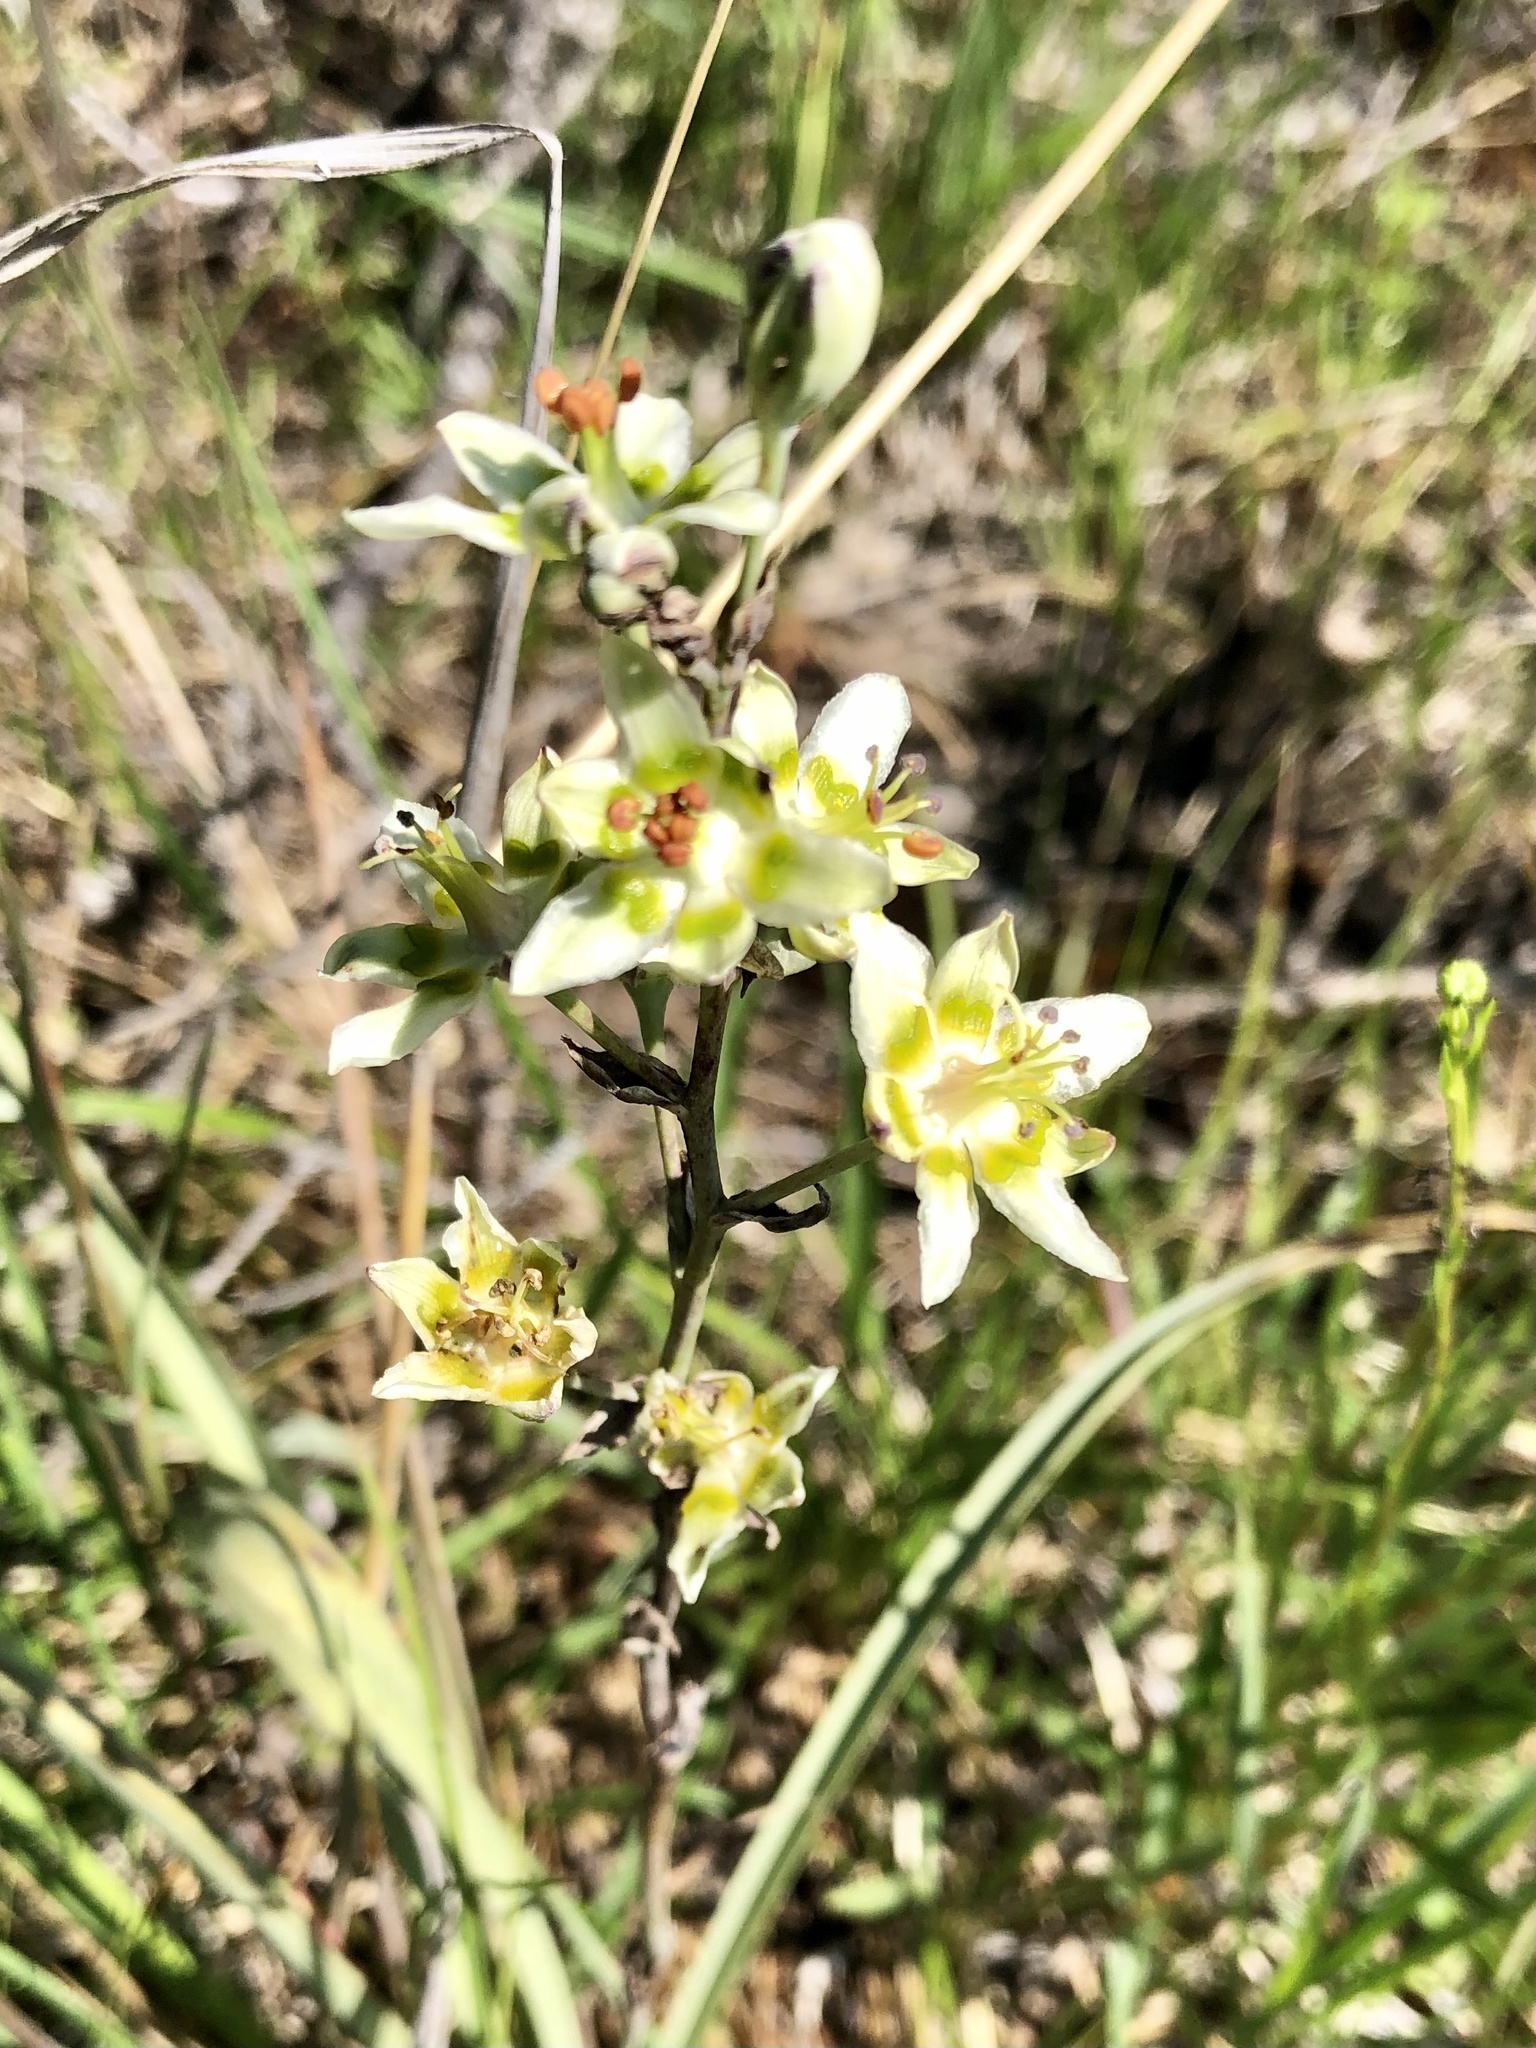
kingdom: Plantae
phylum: Tracheophyta
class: Liliopsida
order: Liliales
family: Melanthiaceae
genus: Anticlea
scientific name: Anticlea elegans
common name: Mountain death camas
